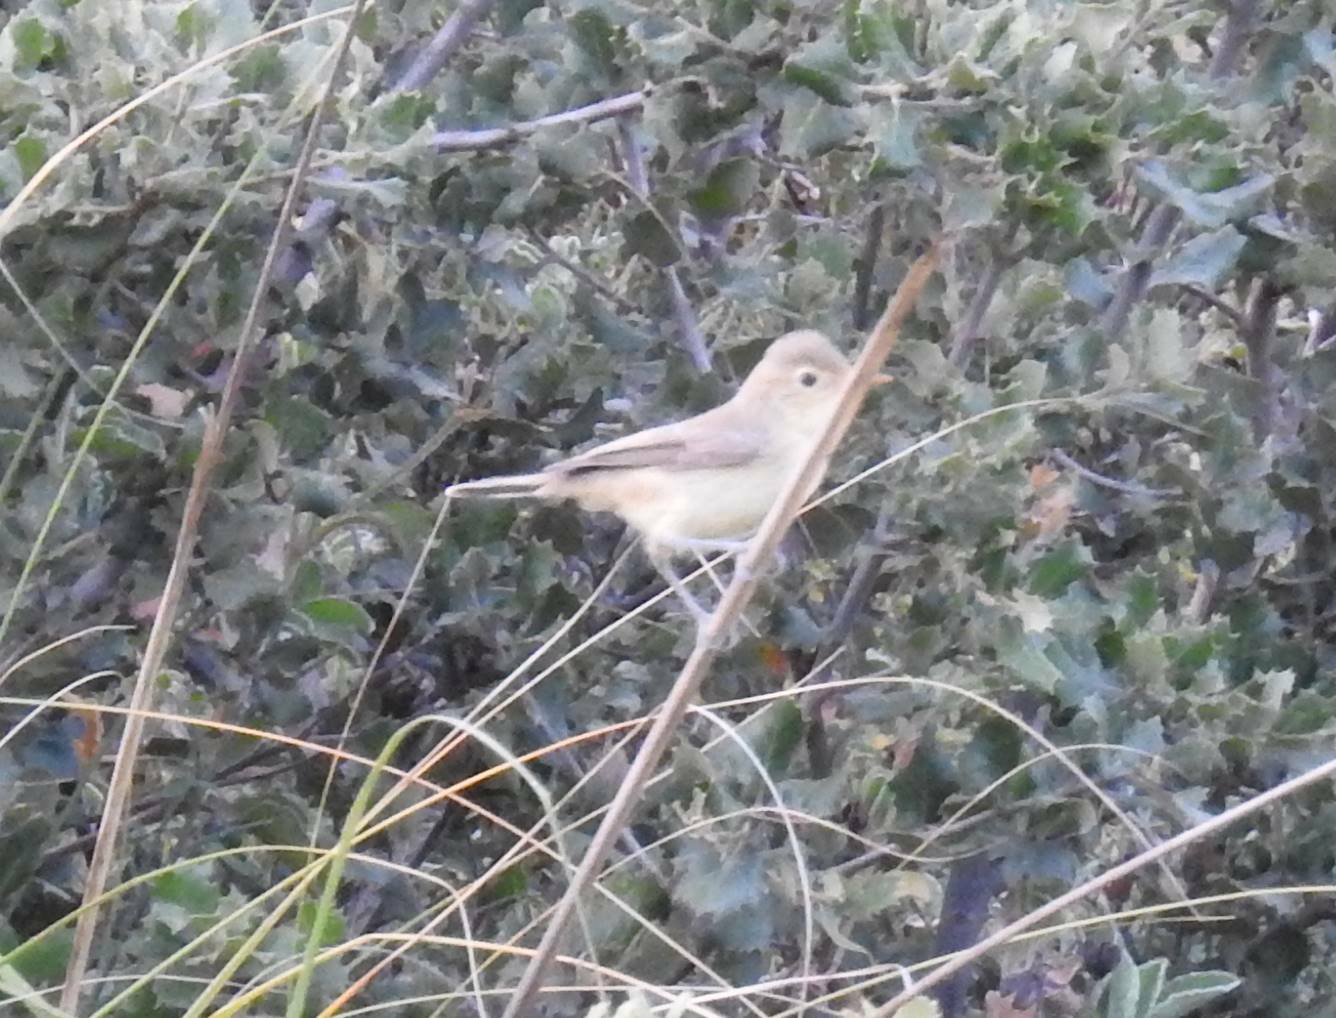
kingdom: Animalia
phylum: Chordata
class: Aves
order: Passeriformes
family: Acrocephalidae
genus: Hippolais
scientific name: Hippolais polyglotta
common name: Melodious warbler
